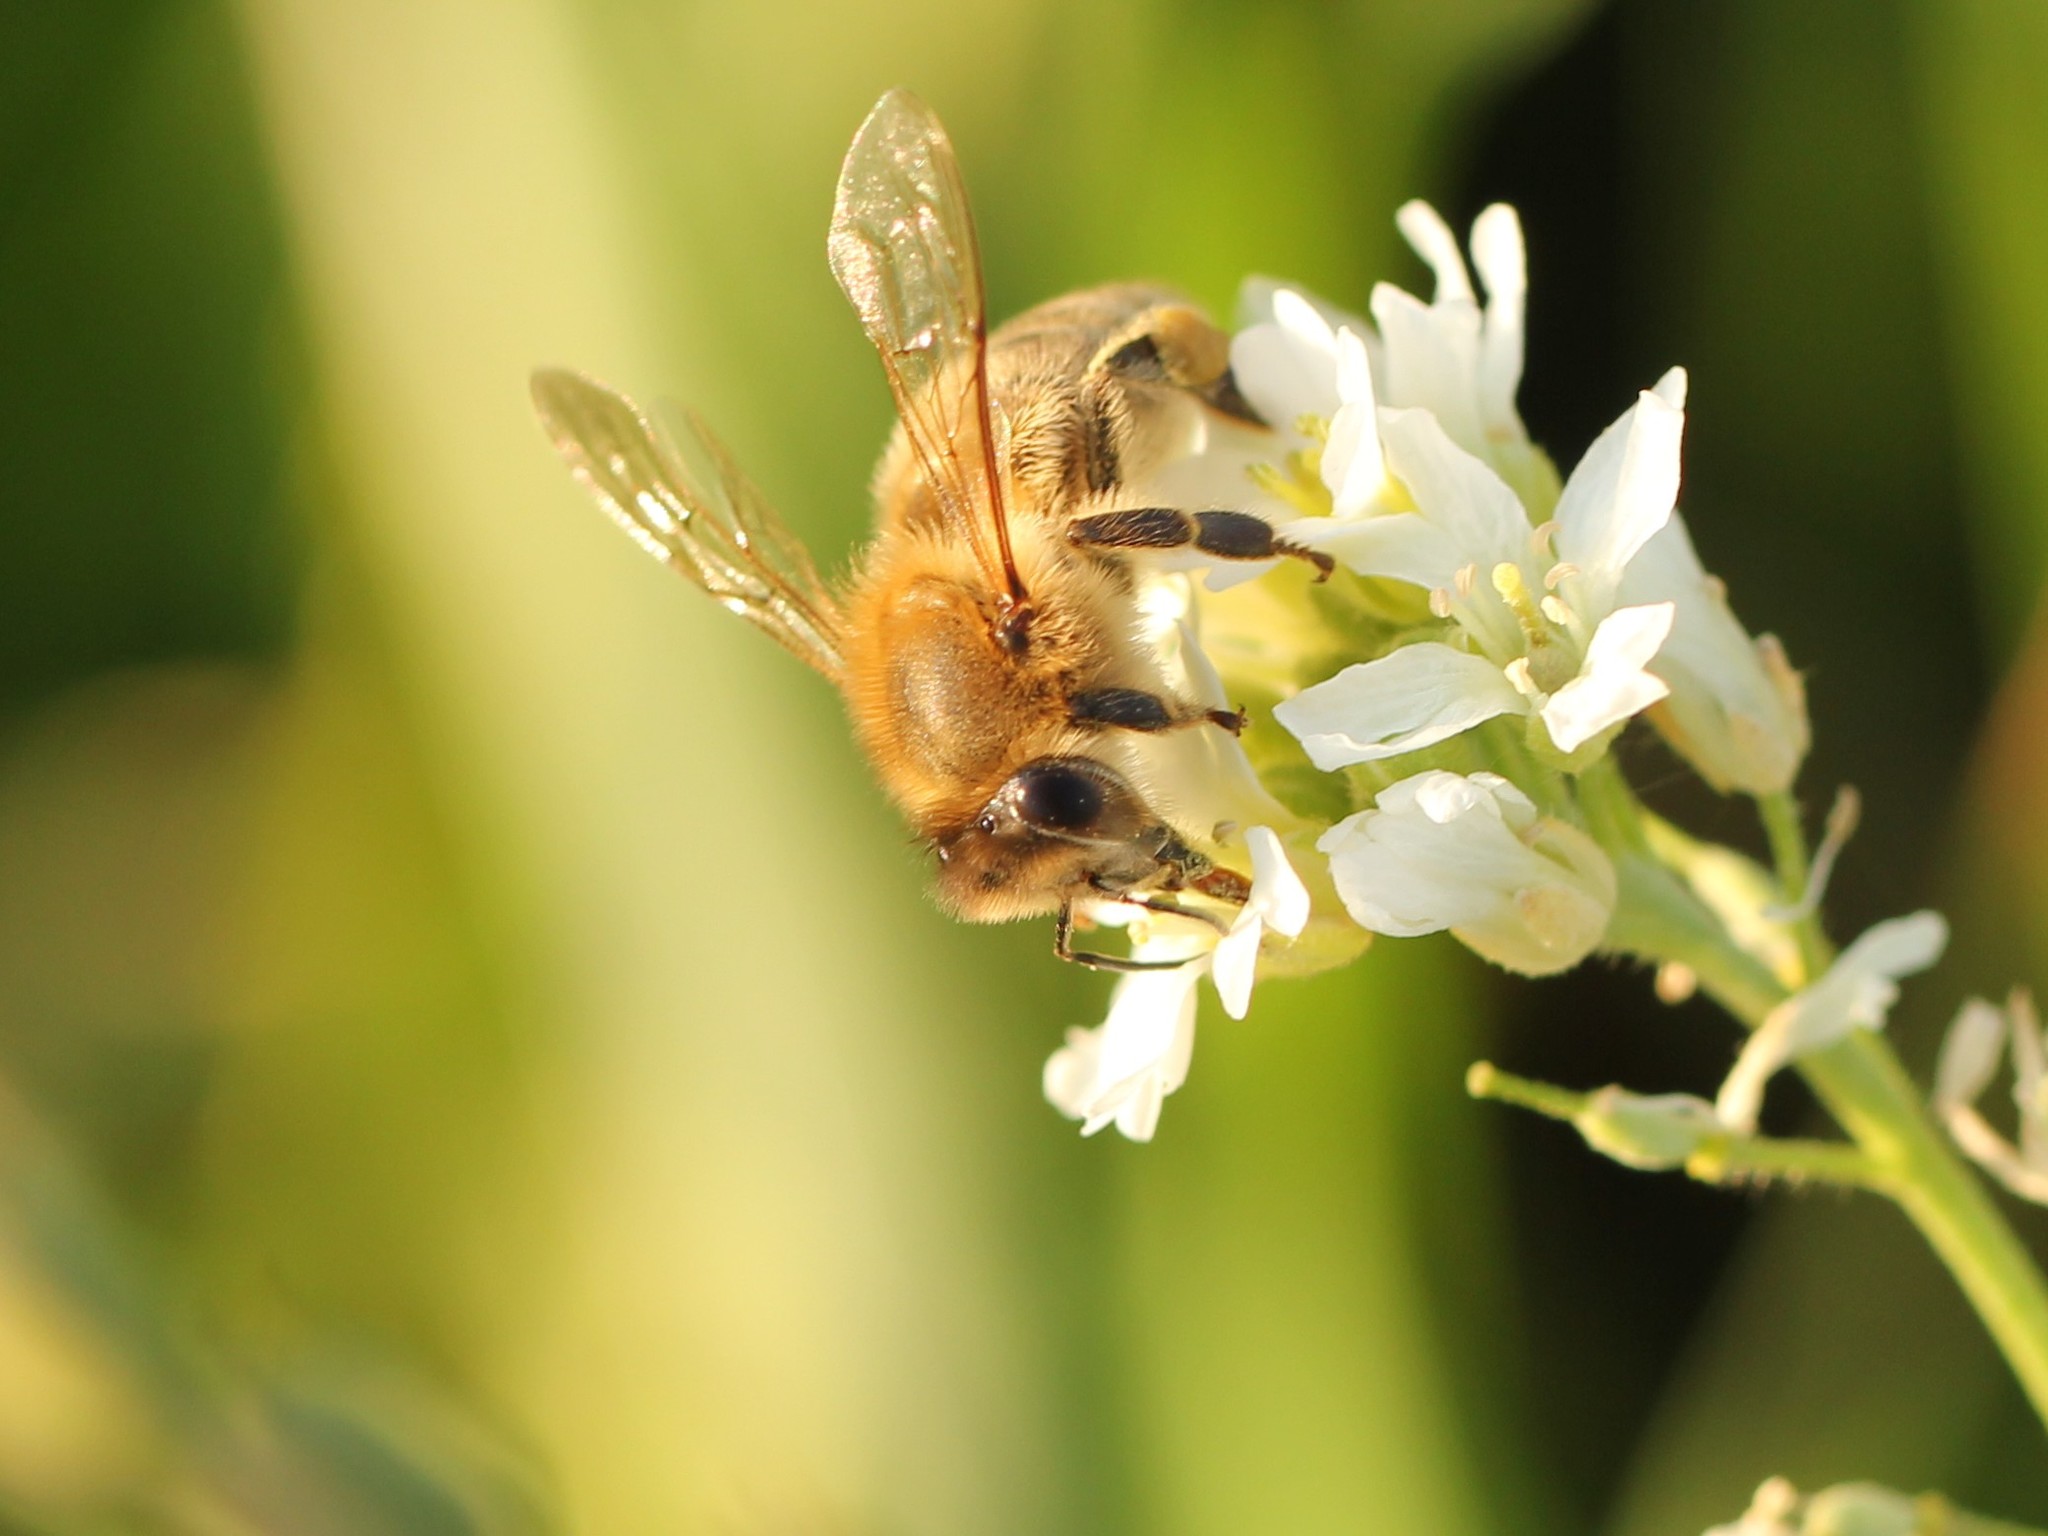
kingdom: Animalia
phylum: Arthropoda
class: Insecta
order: Hymenoptera
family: Apidae
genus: Apis
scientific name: Apis mellifera
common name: Honey bee
